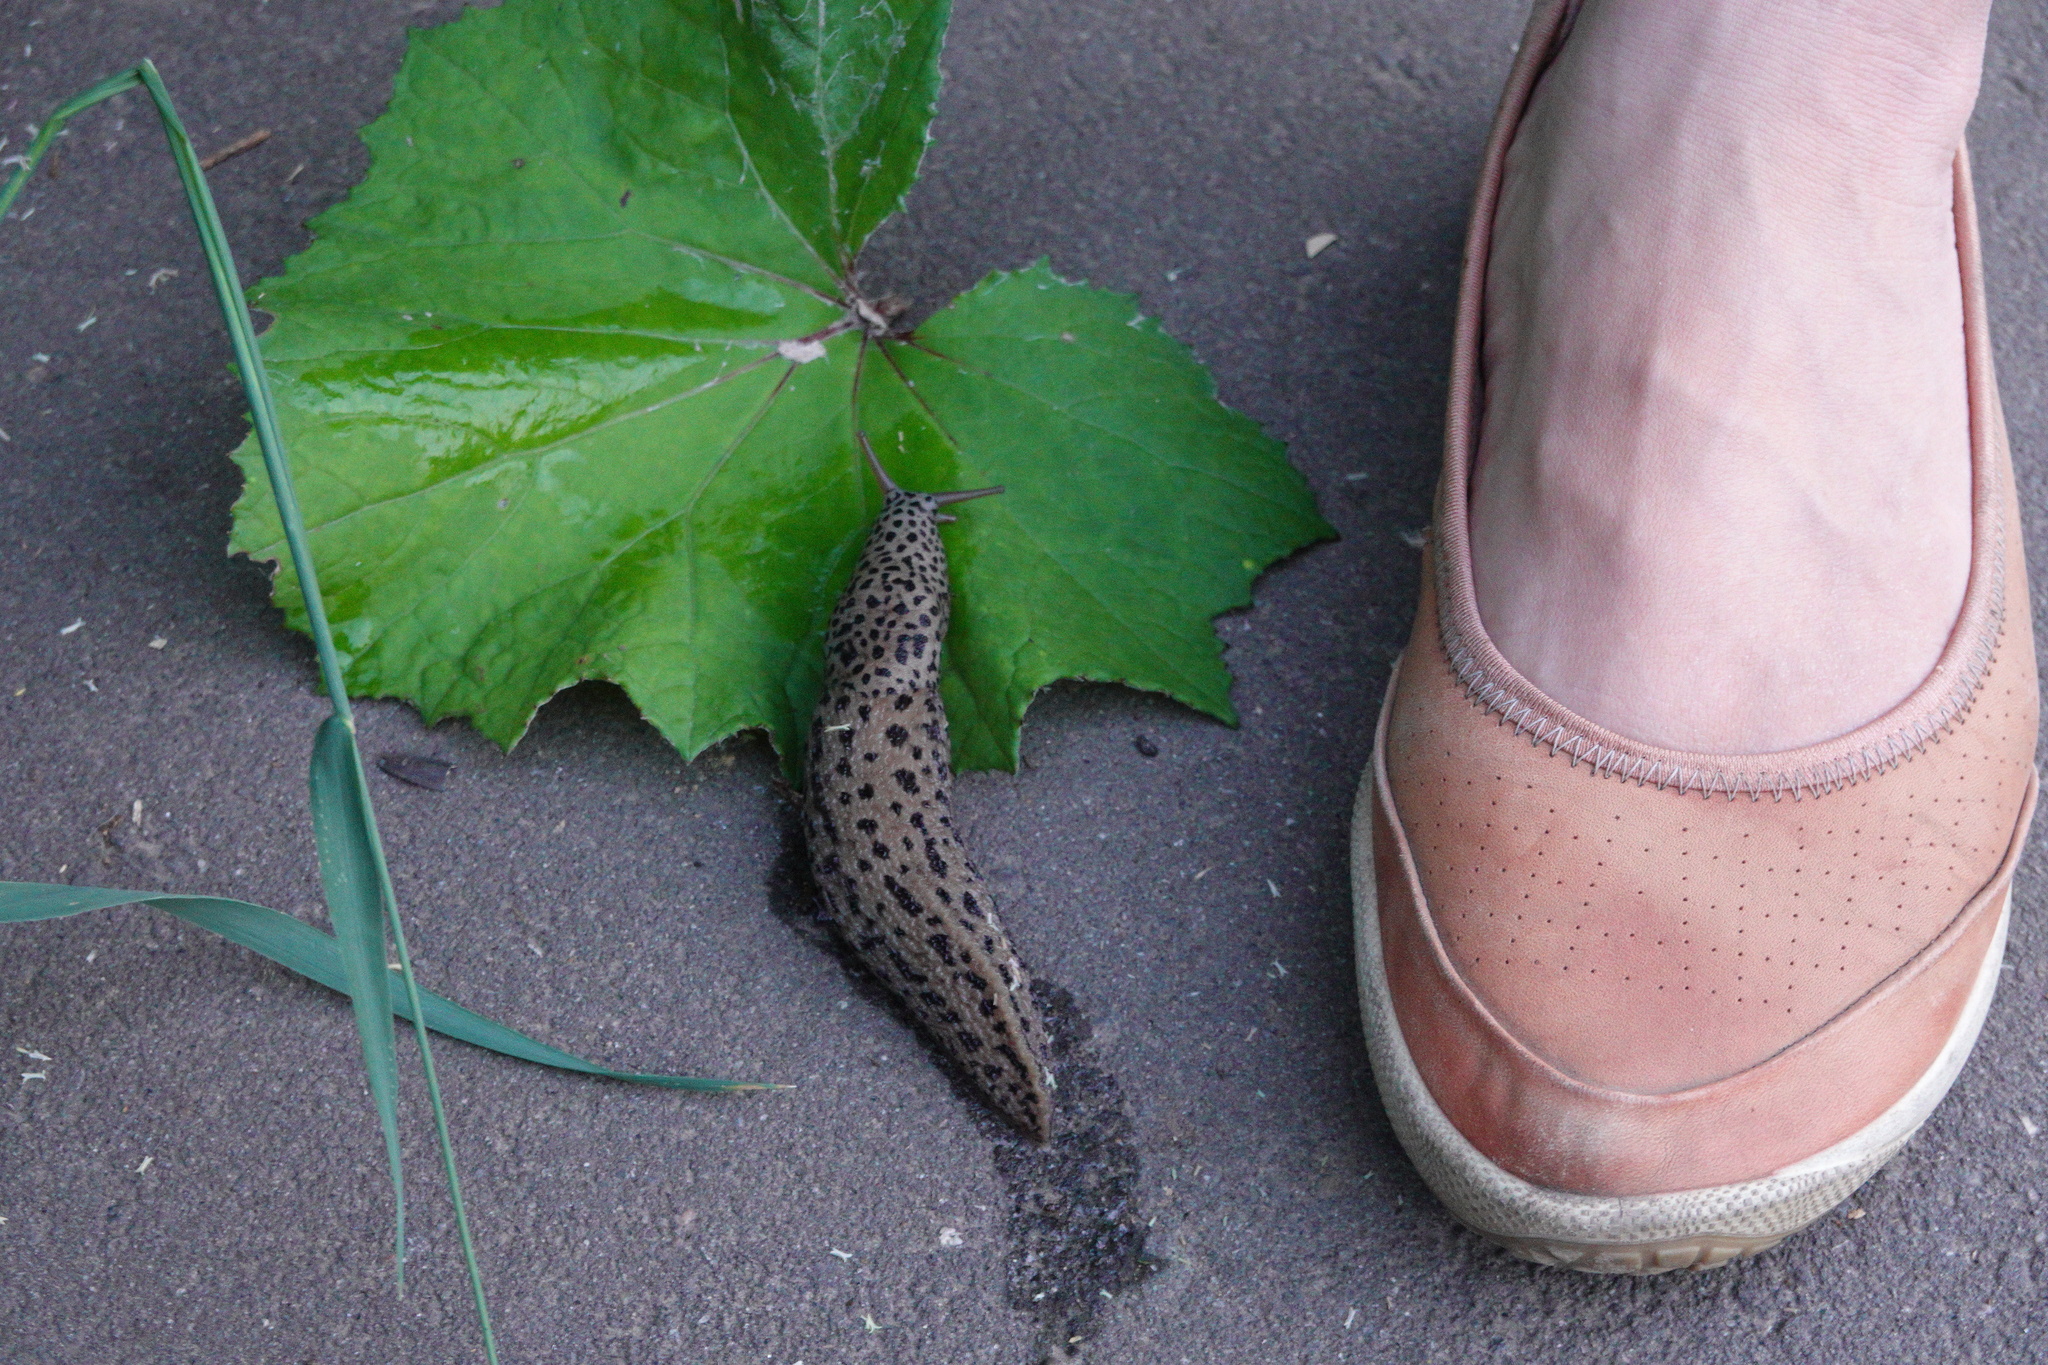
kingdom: Animalia
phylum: Mollusca
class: Gastropoda
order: Stylommatophora
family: Limacidae
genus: Limax
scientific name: Limax maximus
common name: Great grey slug
